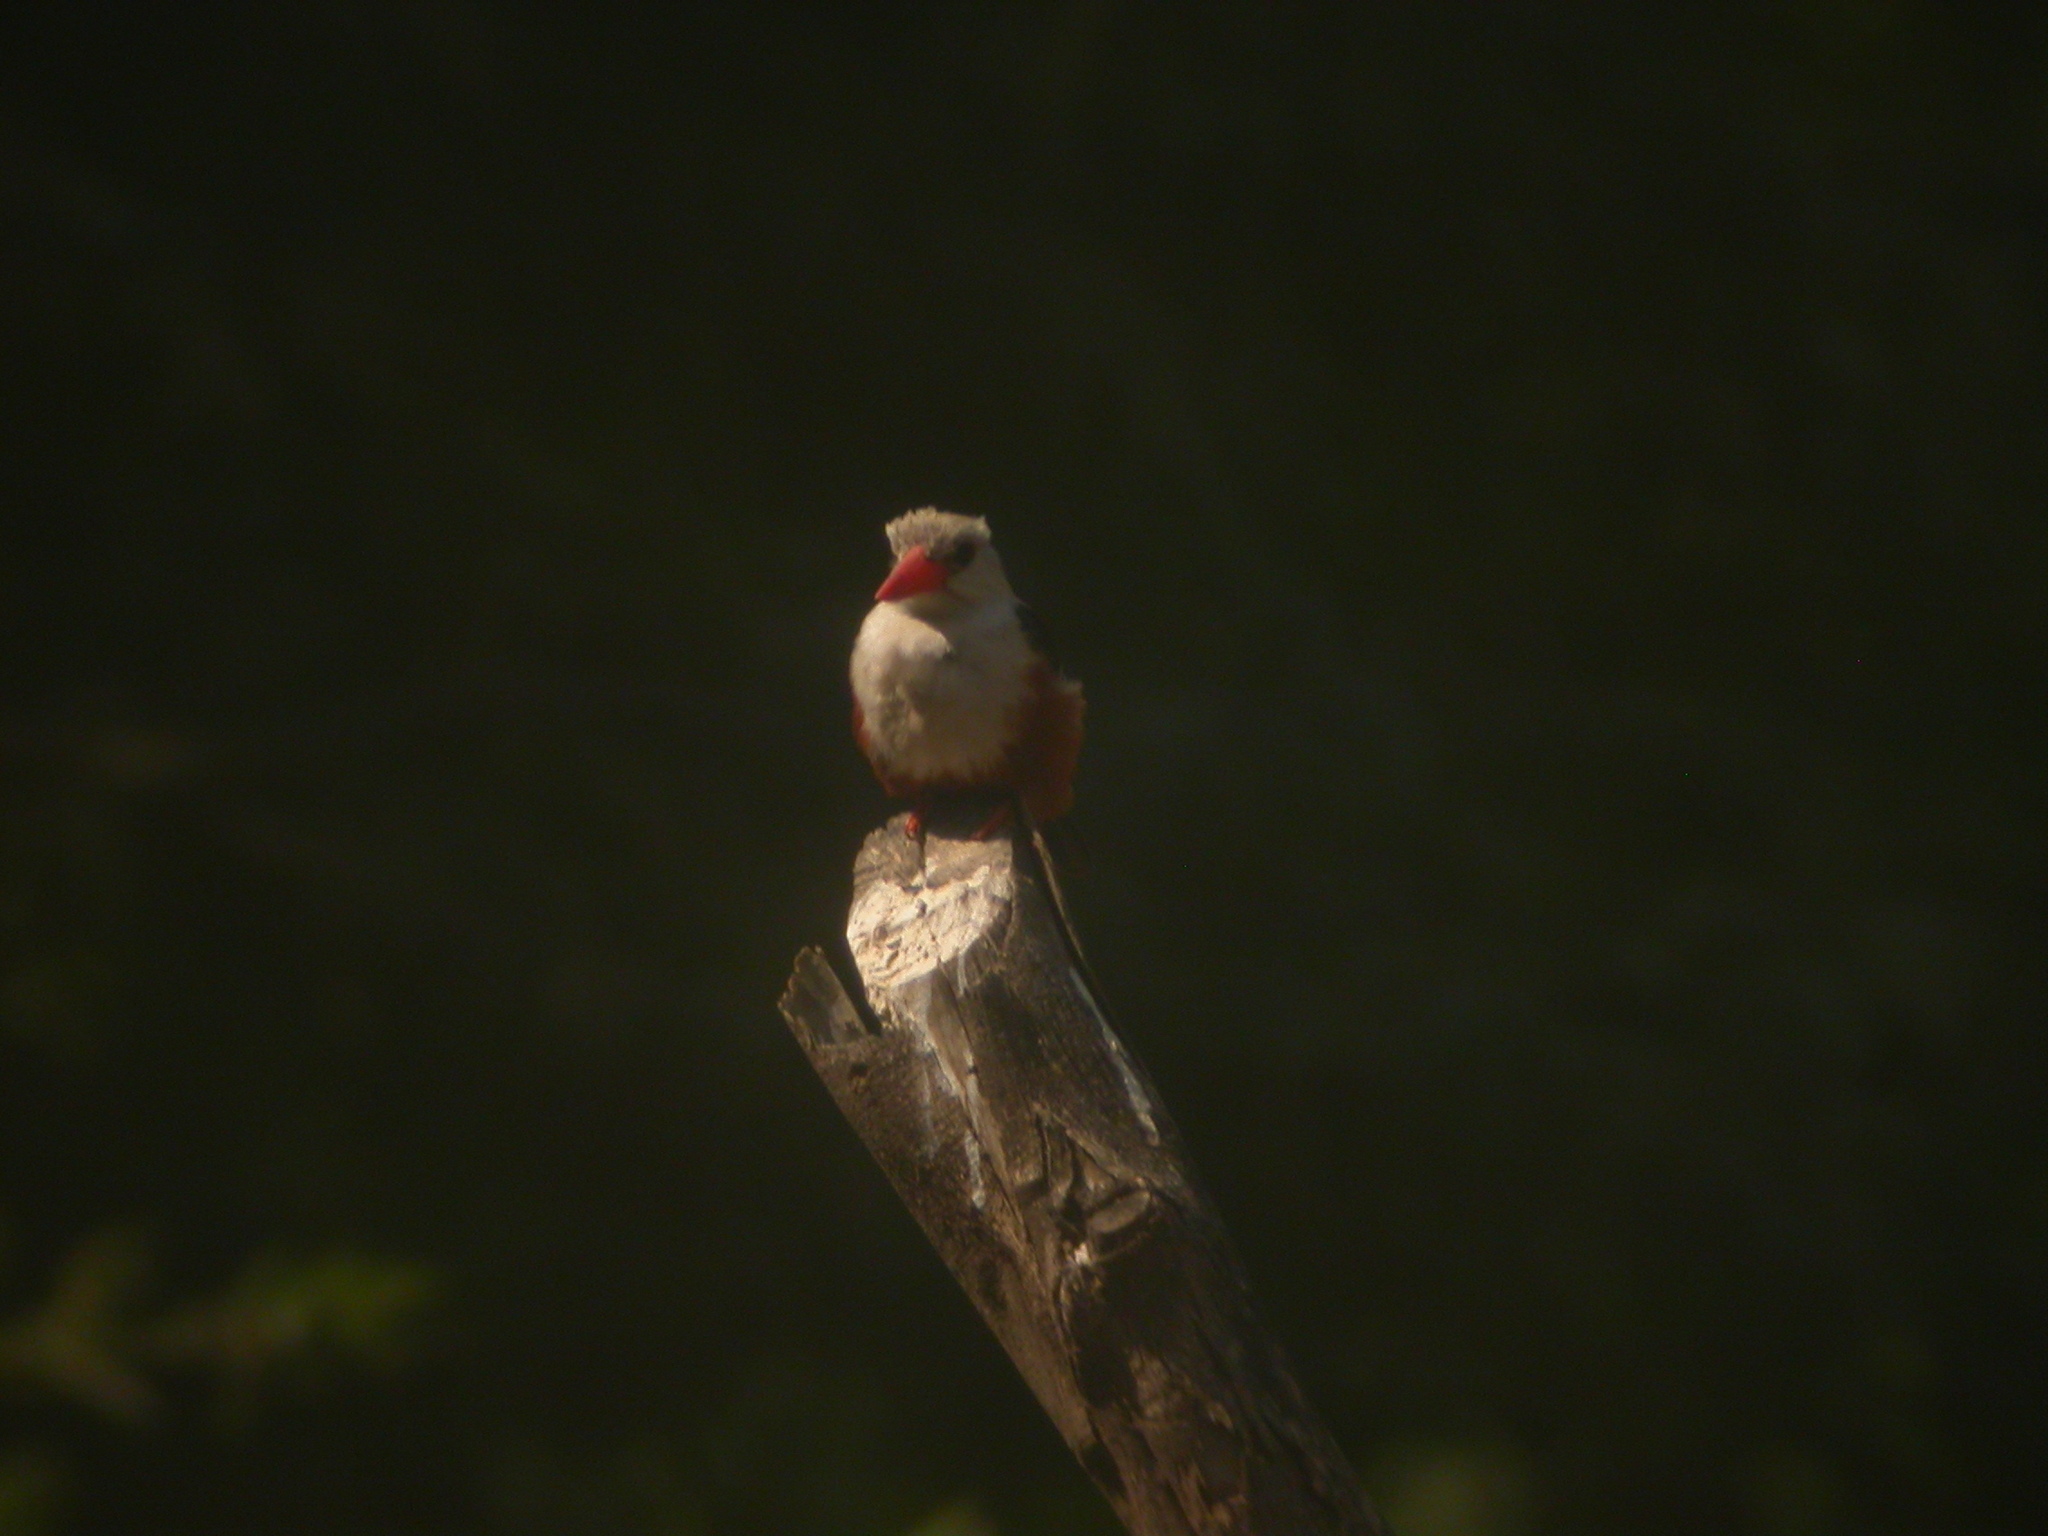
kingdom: Animalia
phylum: Chordata
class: Aves
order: Coraciiformes
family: Alcedinidae
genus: Halcyon
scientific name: Halcyon leucocephala
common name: Grey-headed kingfisher
